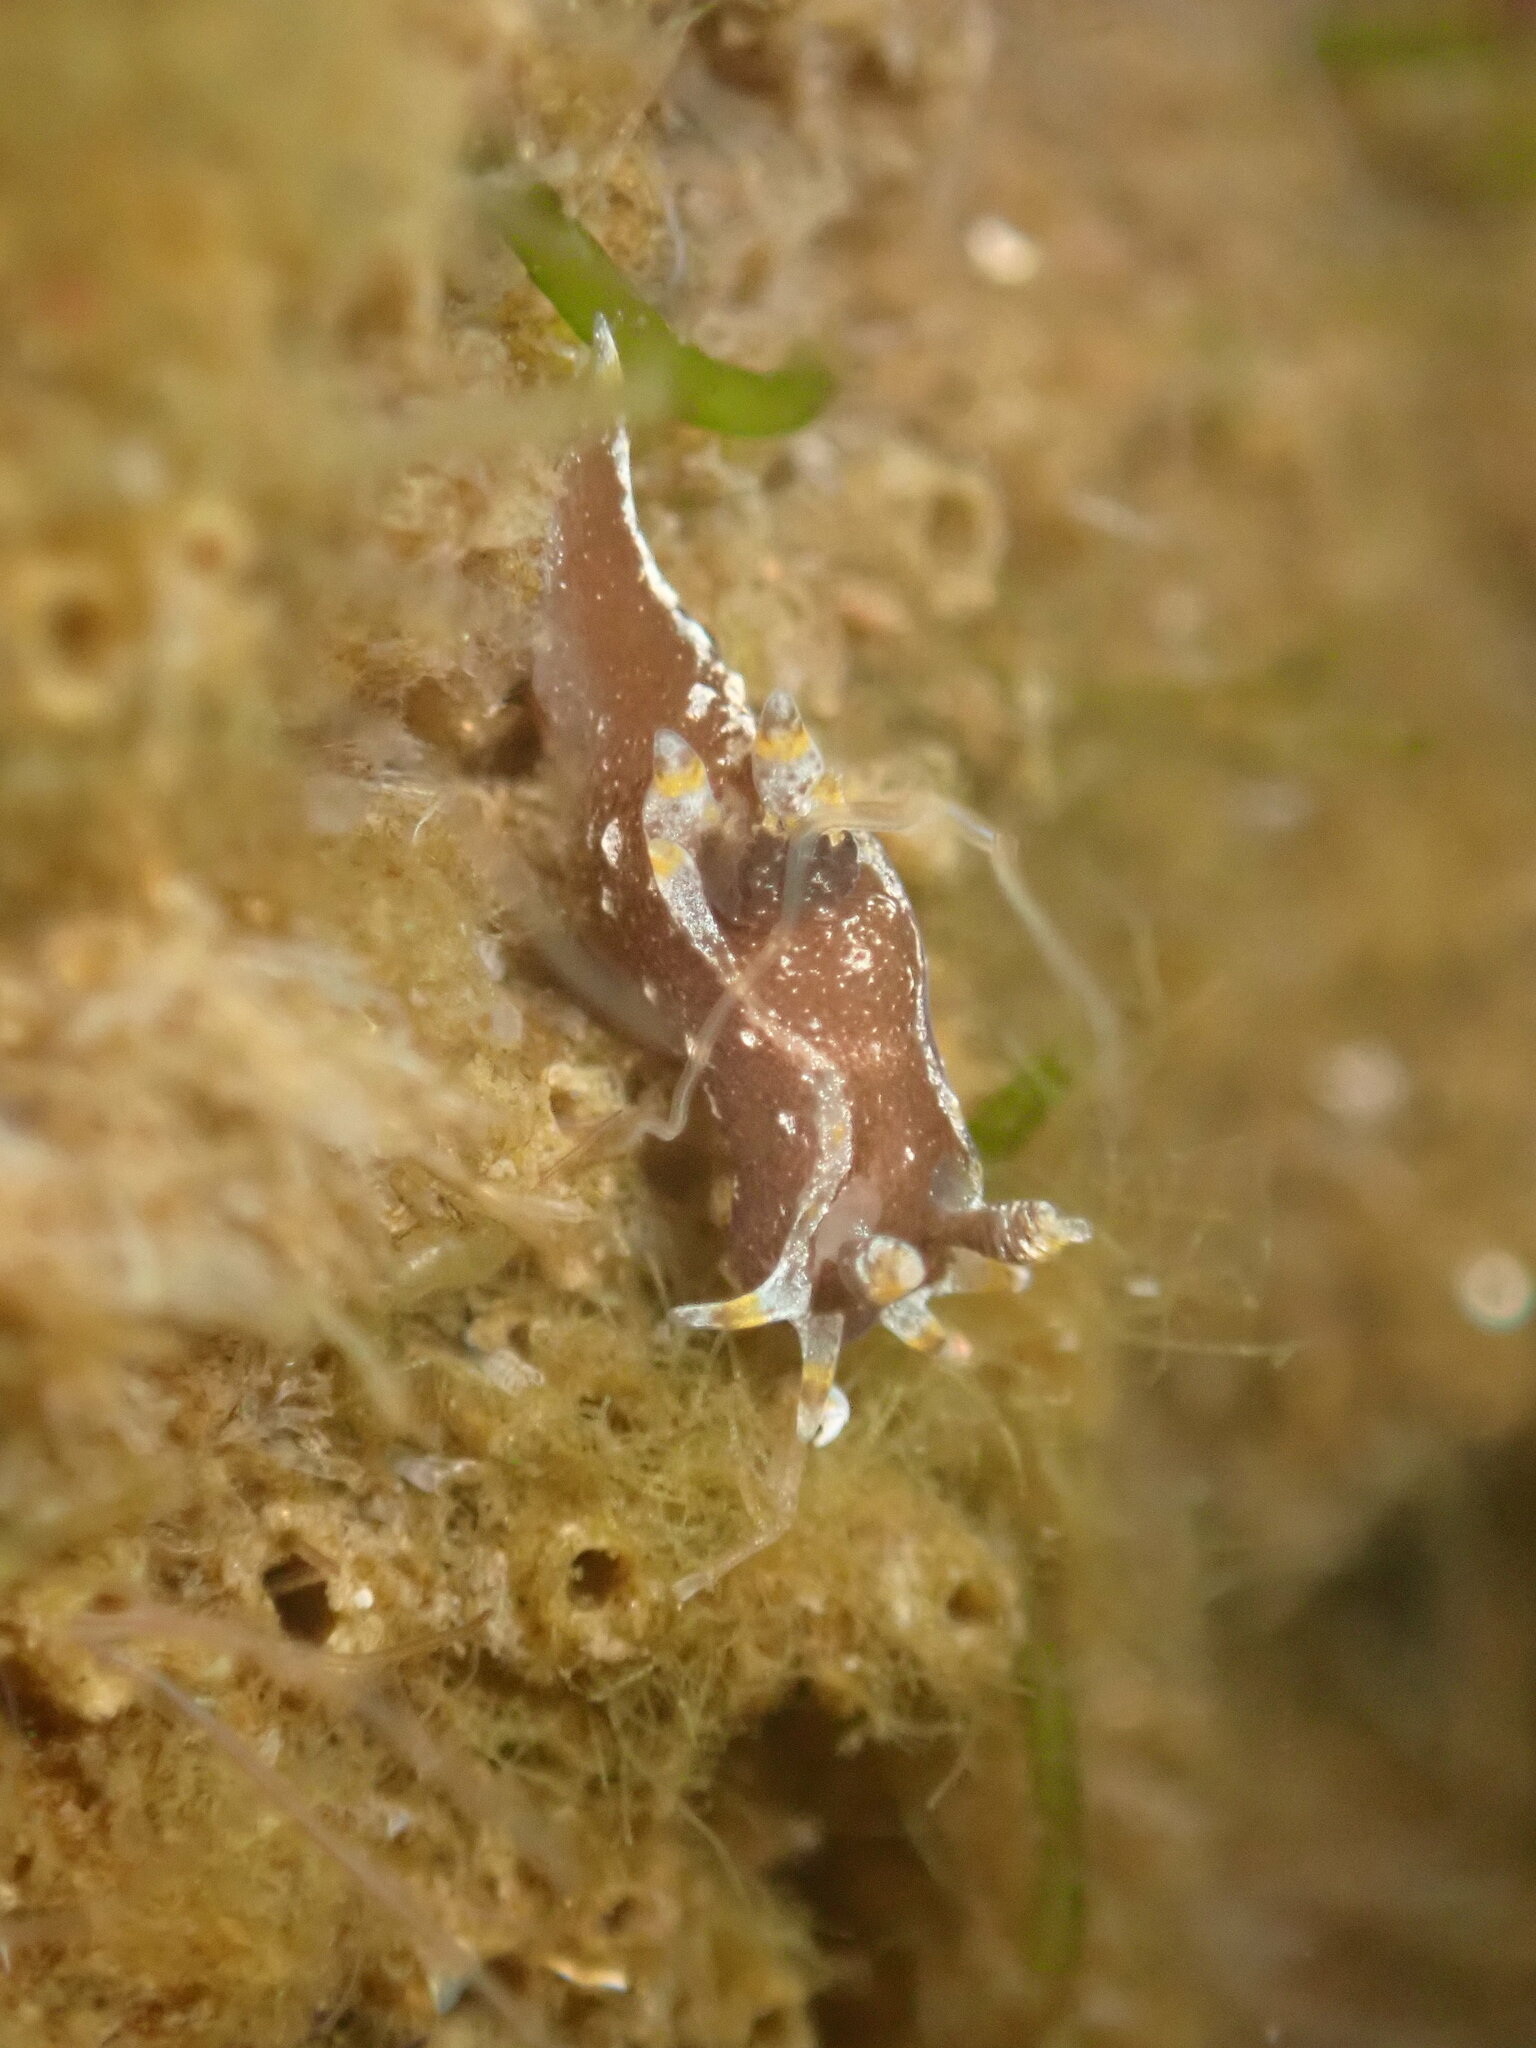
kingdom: Animalia
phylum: Mollusca
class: Gastropoda
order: Nudibranchia
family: Polyceridae
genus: Polycera
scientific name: Polycera hedgpethi
